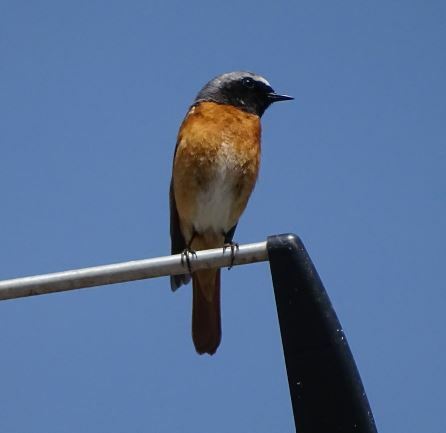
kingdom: Animalia
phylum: Chordata
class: Aves
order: Passeriformes
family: Muscicapidae
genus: Phoenicurus
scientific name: Phoenicurus phoenicurus
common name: Common redstart
